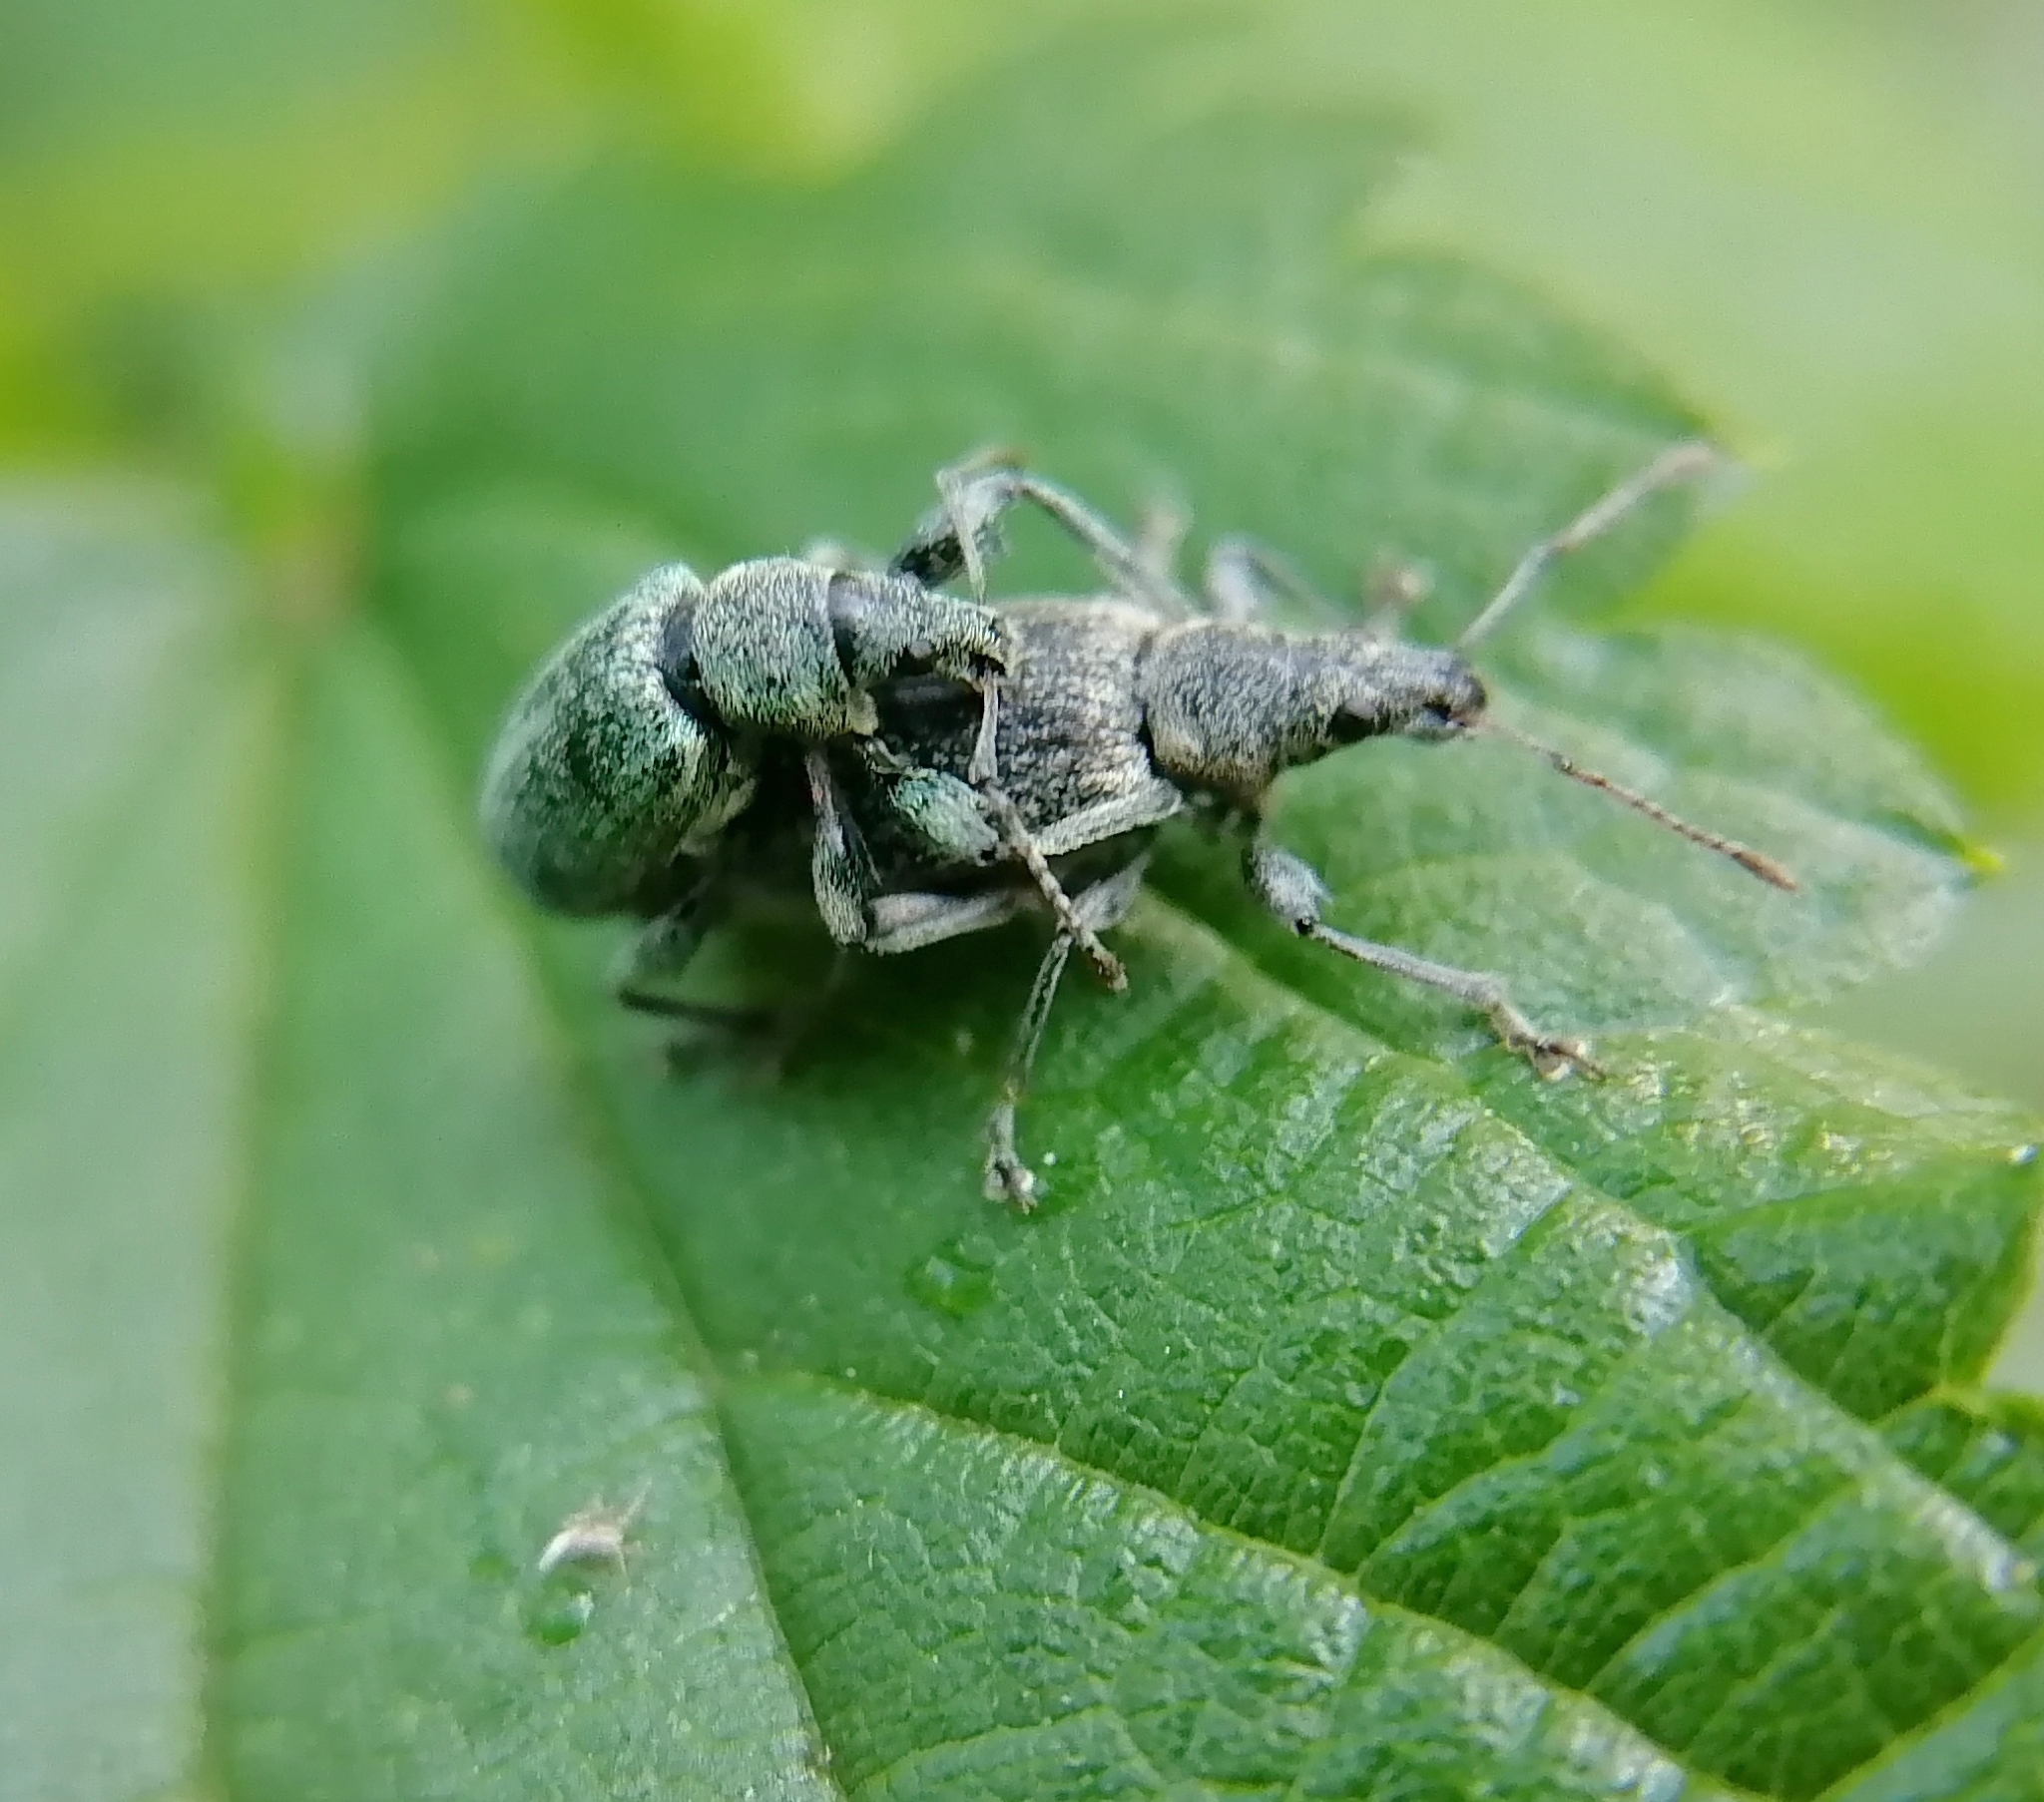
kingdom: Animalia
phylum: Arthropoda
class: Insecta
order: Coleoptera
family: Curculionidae
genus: Phyllobius
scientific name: Phyllobius pomaceus
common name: Green nettle weevil
